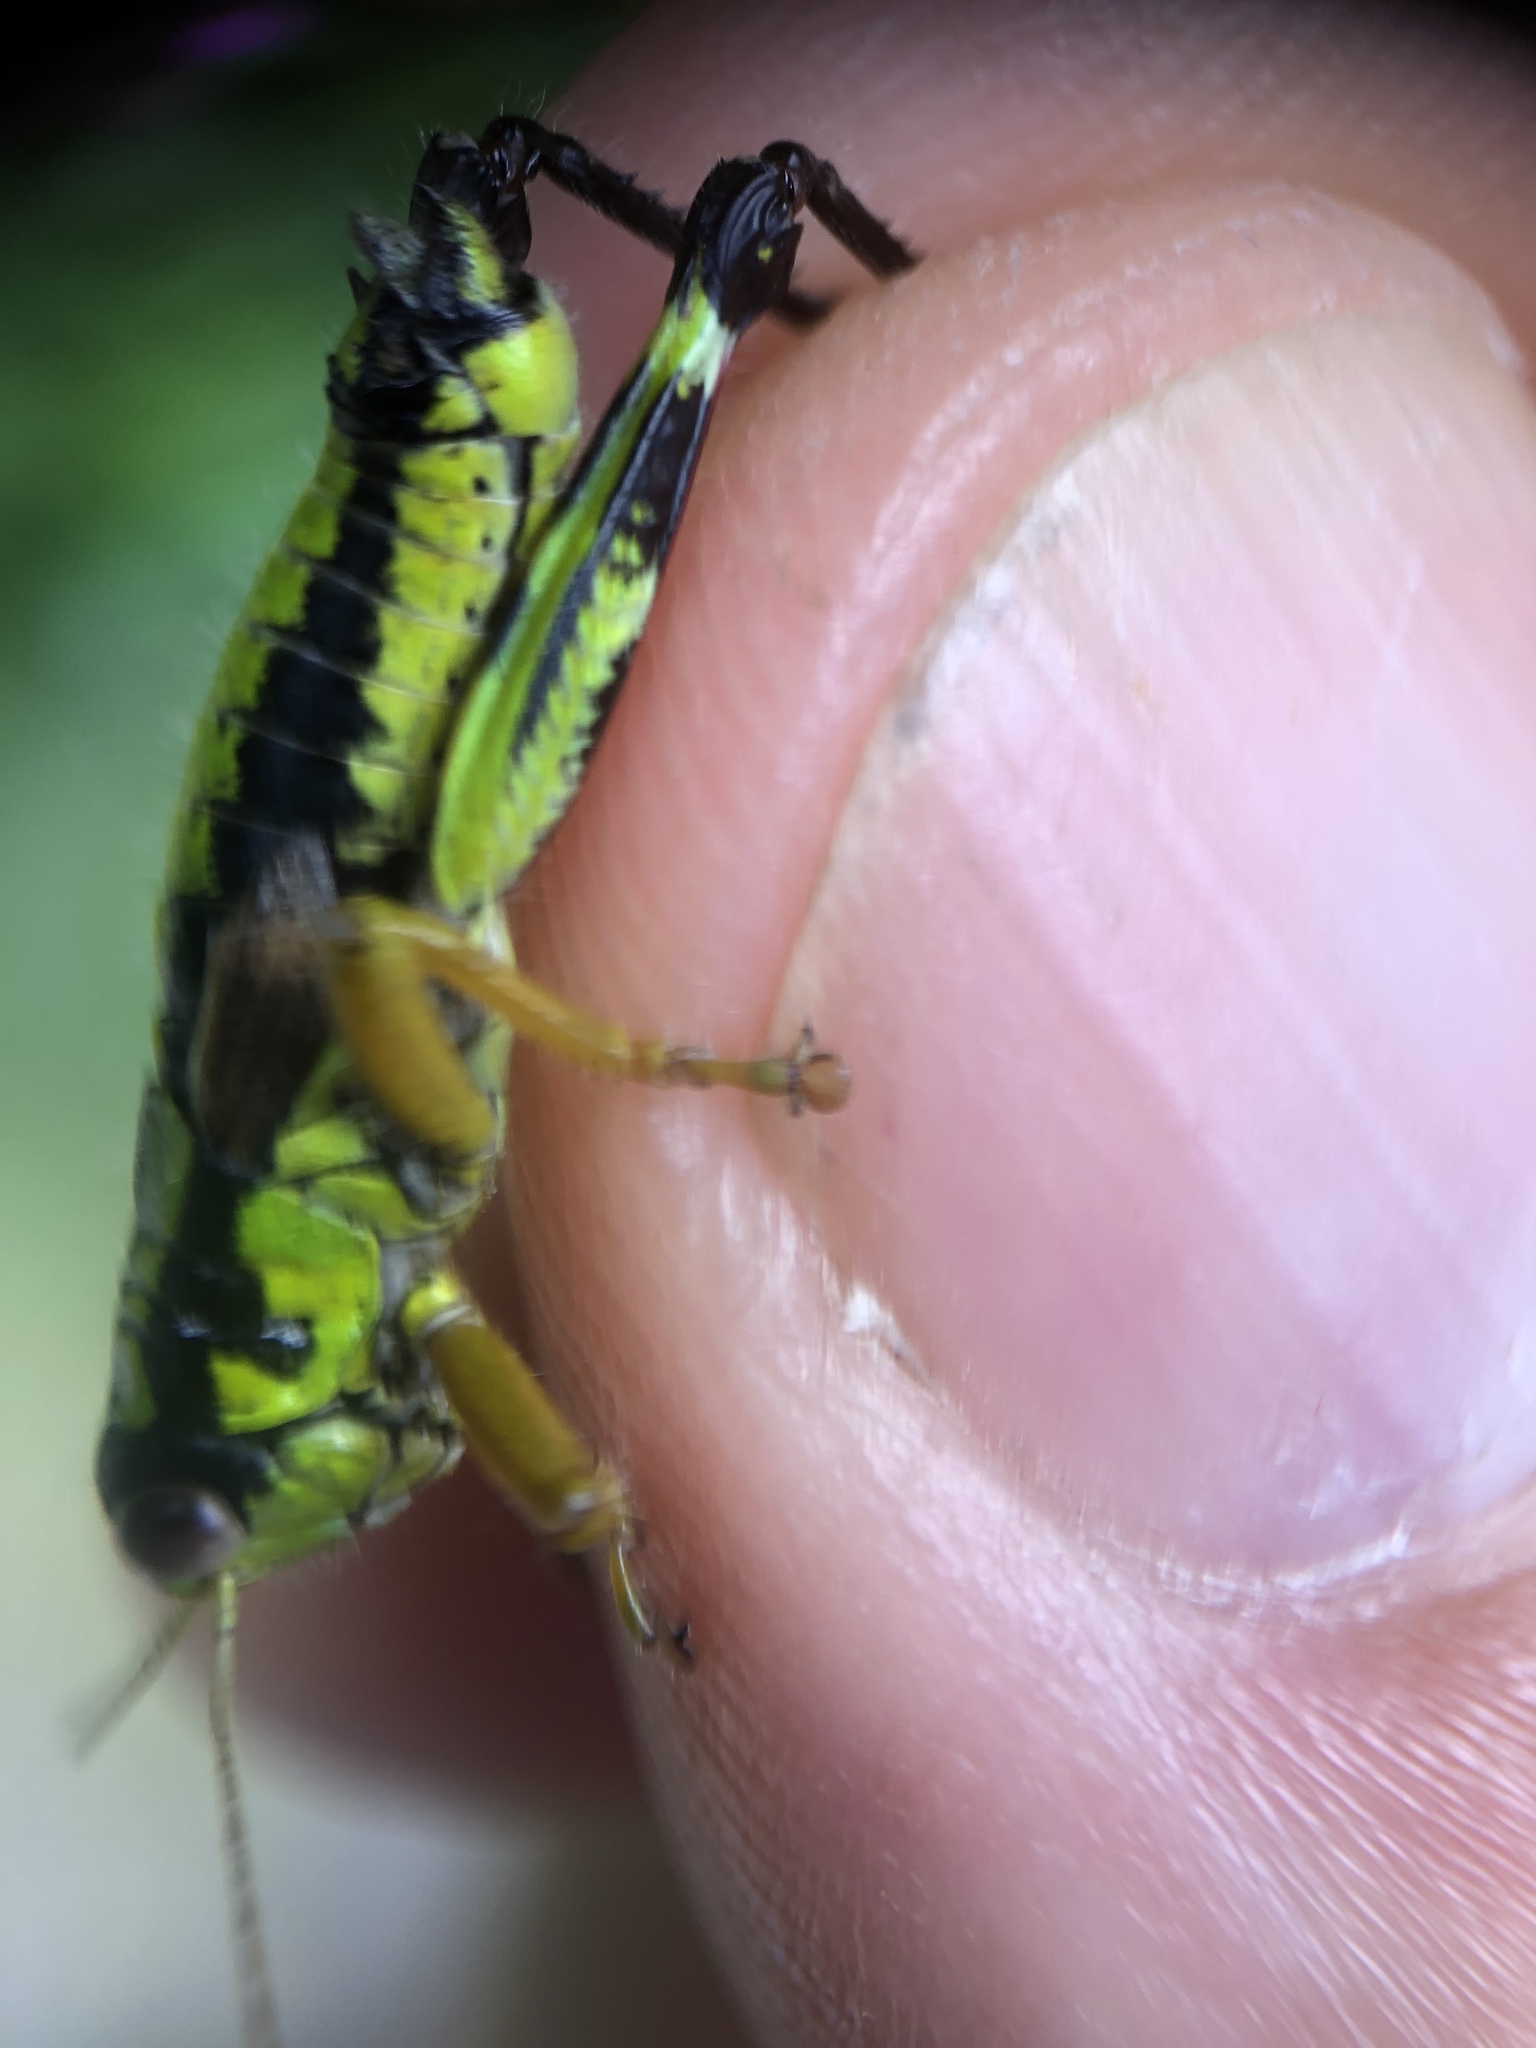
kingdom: Animalia
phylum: Arthropoda
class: Insecta
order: Orthoptera
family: Acrididae
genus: Miramella
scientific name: Miramella alpina
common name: Green mountain grasshopper
